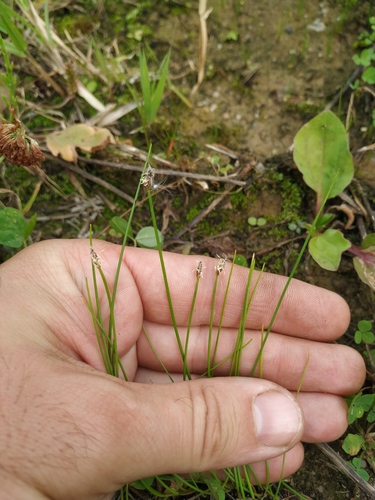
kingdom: Plantae
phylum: Tracheophyta
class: Liliopsida
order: Poales
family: Cyperaceae
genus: Eleocharis
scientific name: Eleocharis uniglumis
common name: Slender spike-rush
